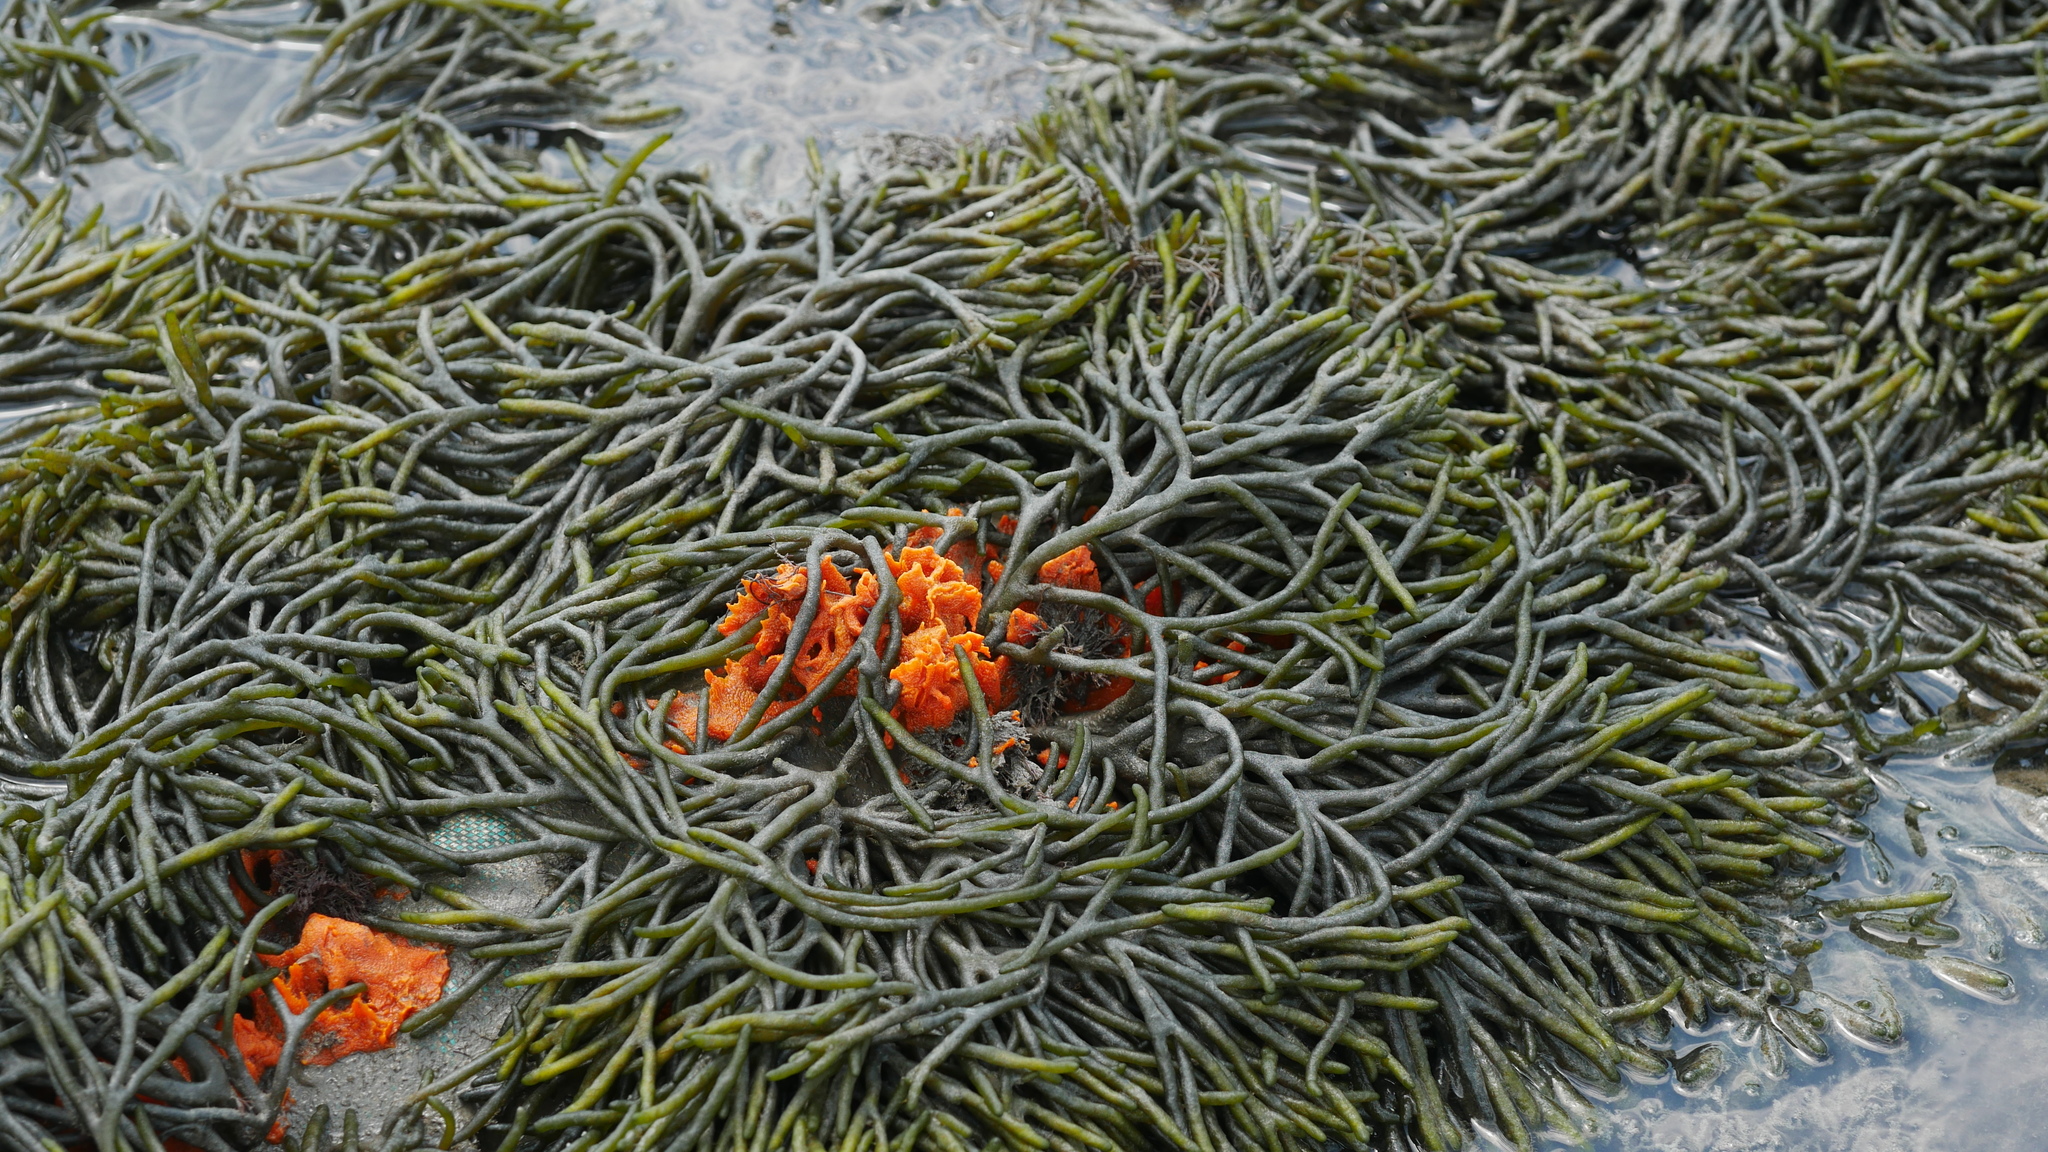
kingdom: Plantae
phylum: Chlorophyta
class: Ulvophyceae
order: Bryopsidales
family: Codiaceae
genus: Codium
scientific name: Codium fragile
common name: Dead man's fingers
